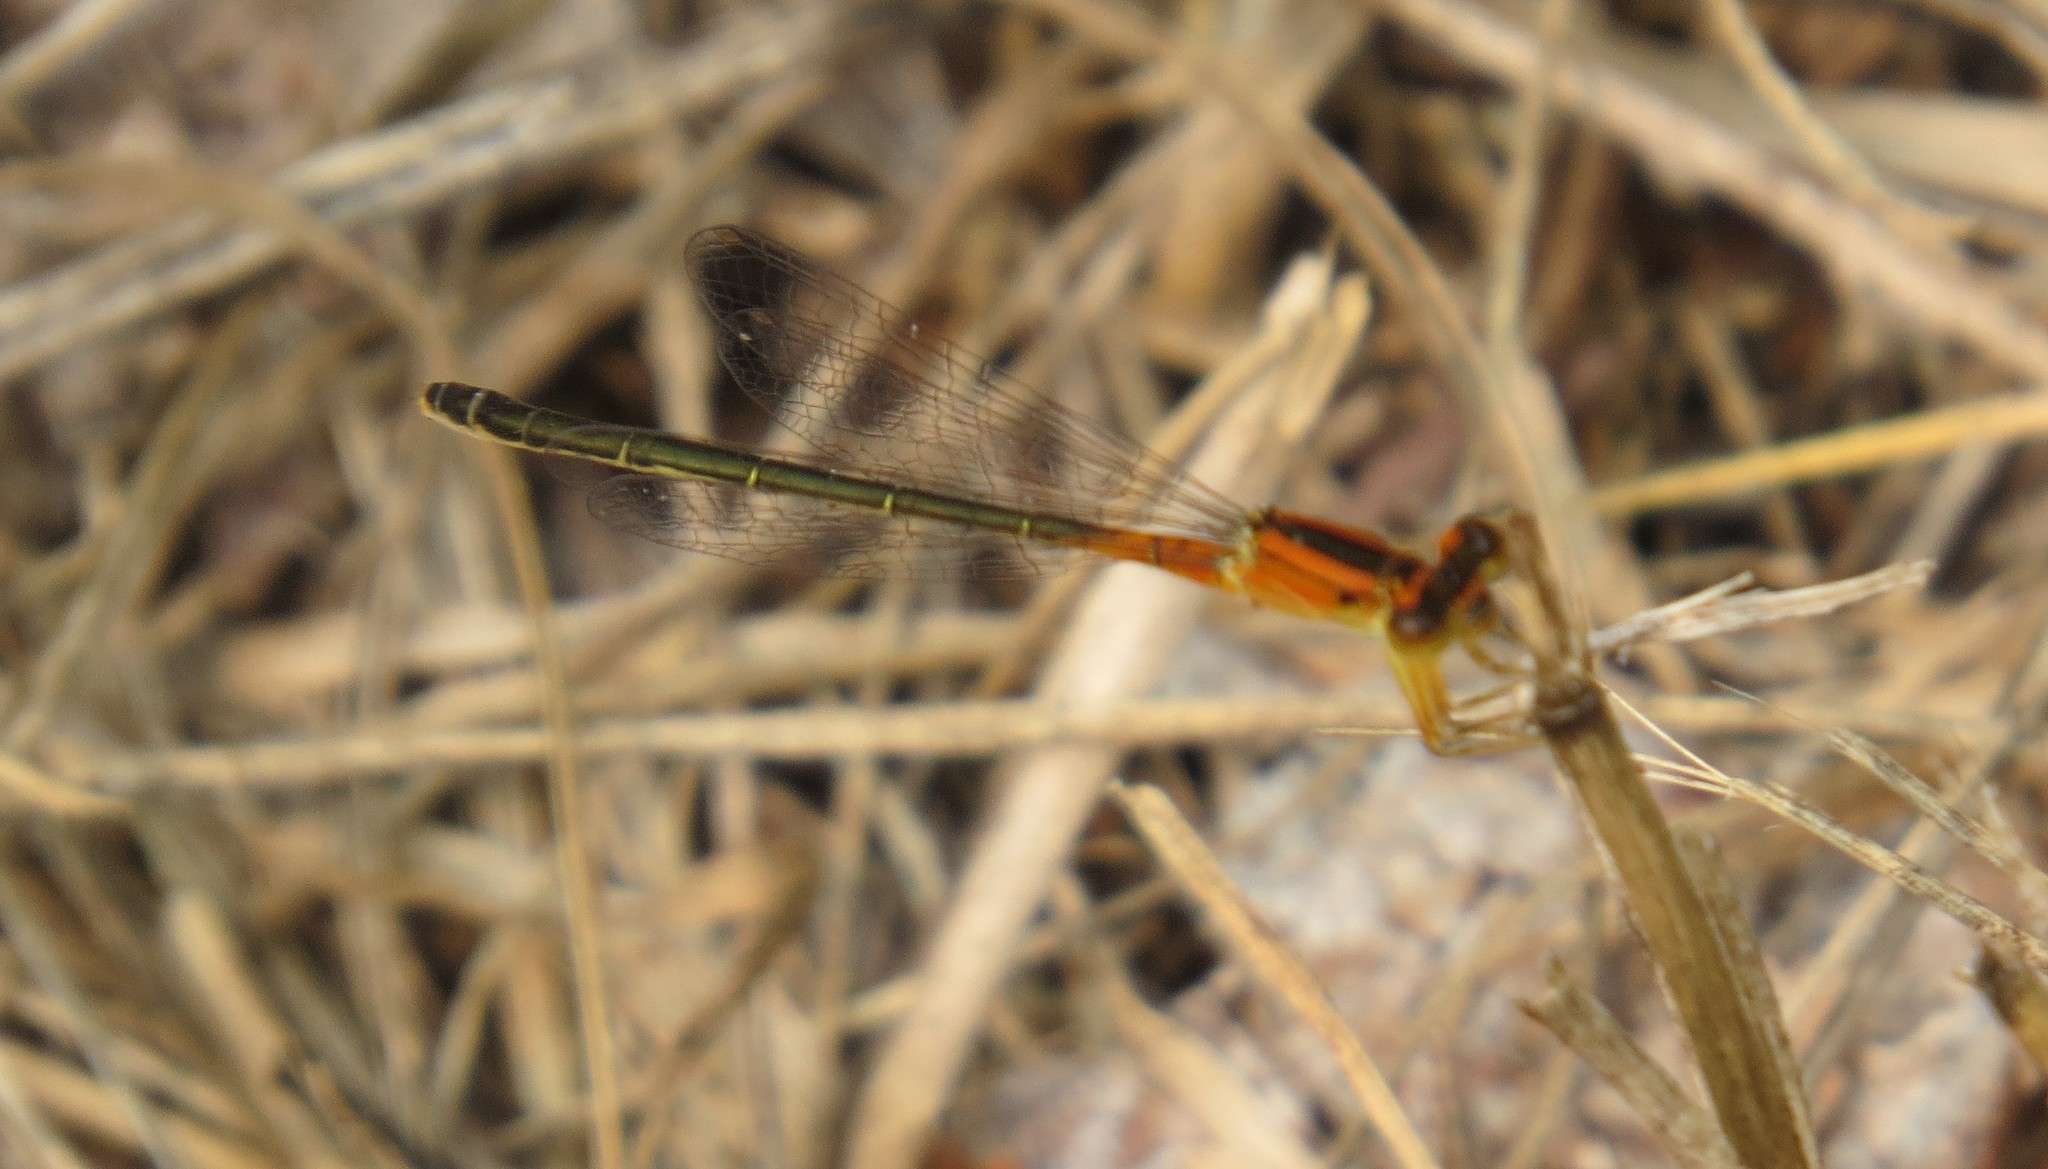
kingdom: Animalia
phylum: Arthropoda
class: Insecta
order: Odonata
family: Coenagrionidae
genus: Ischnura
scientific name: Ischnura verticalis
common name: Eastern forktail
